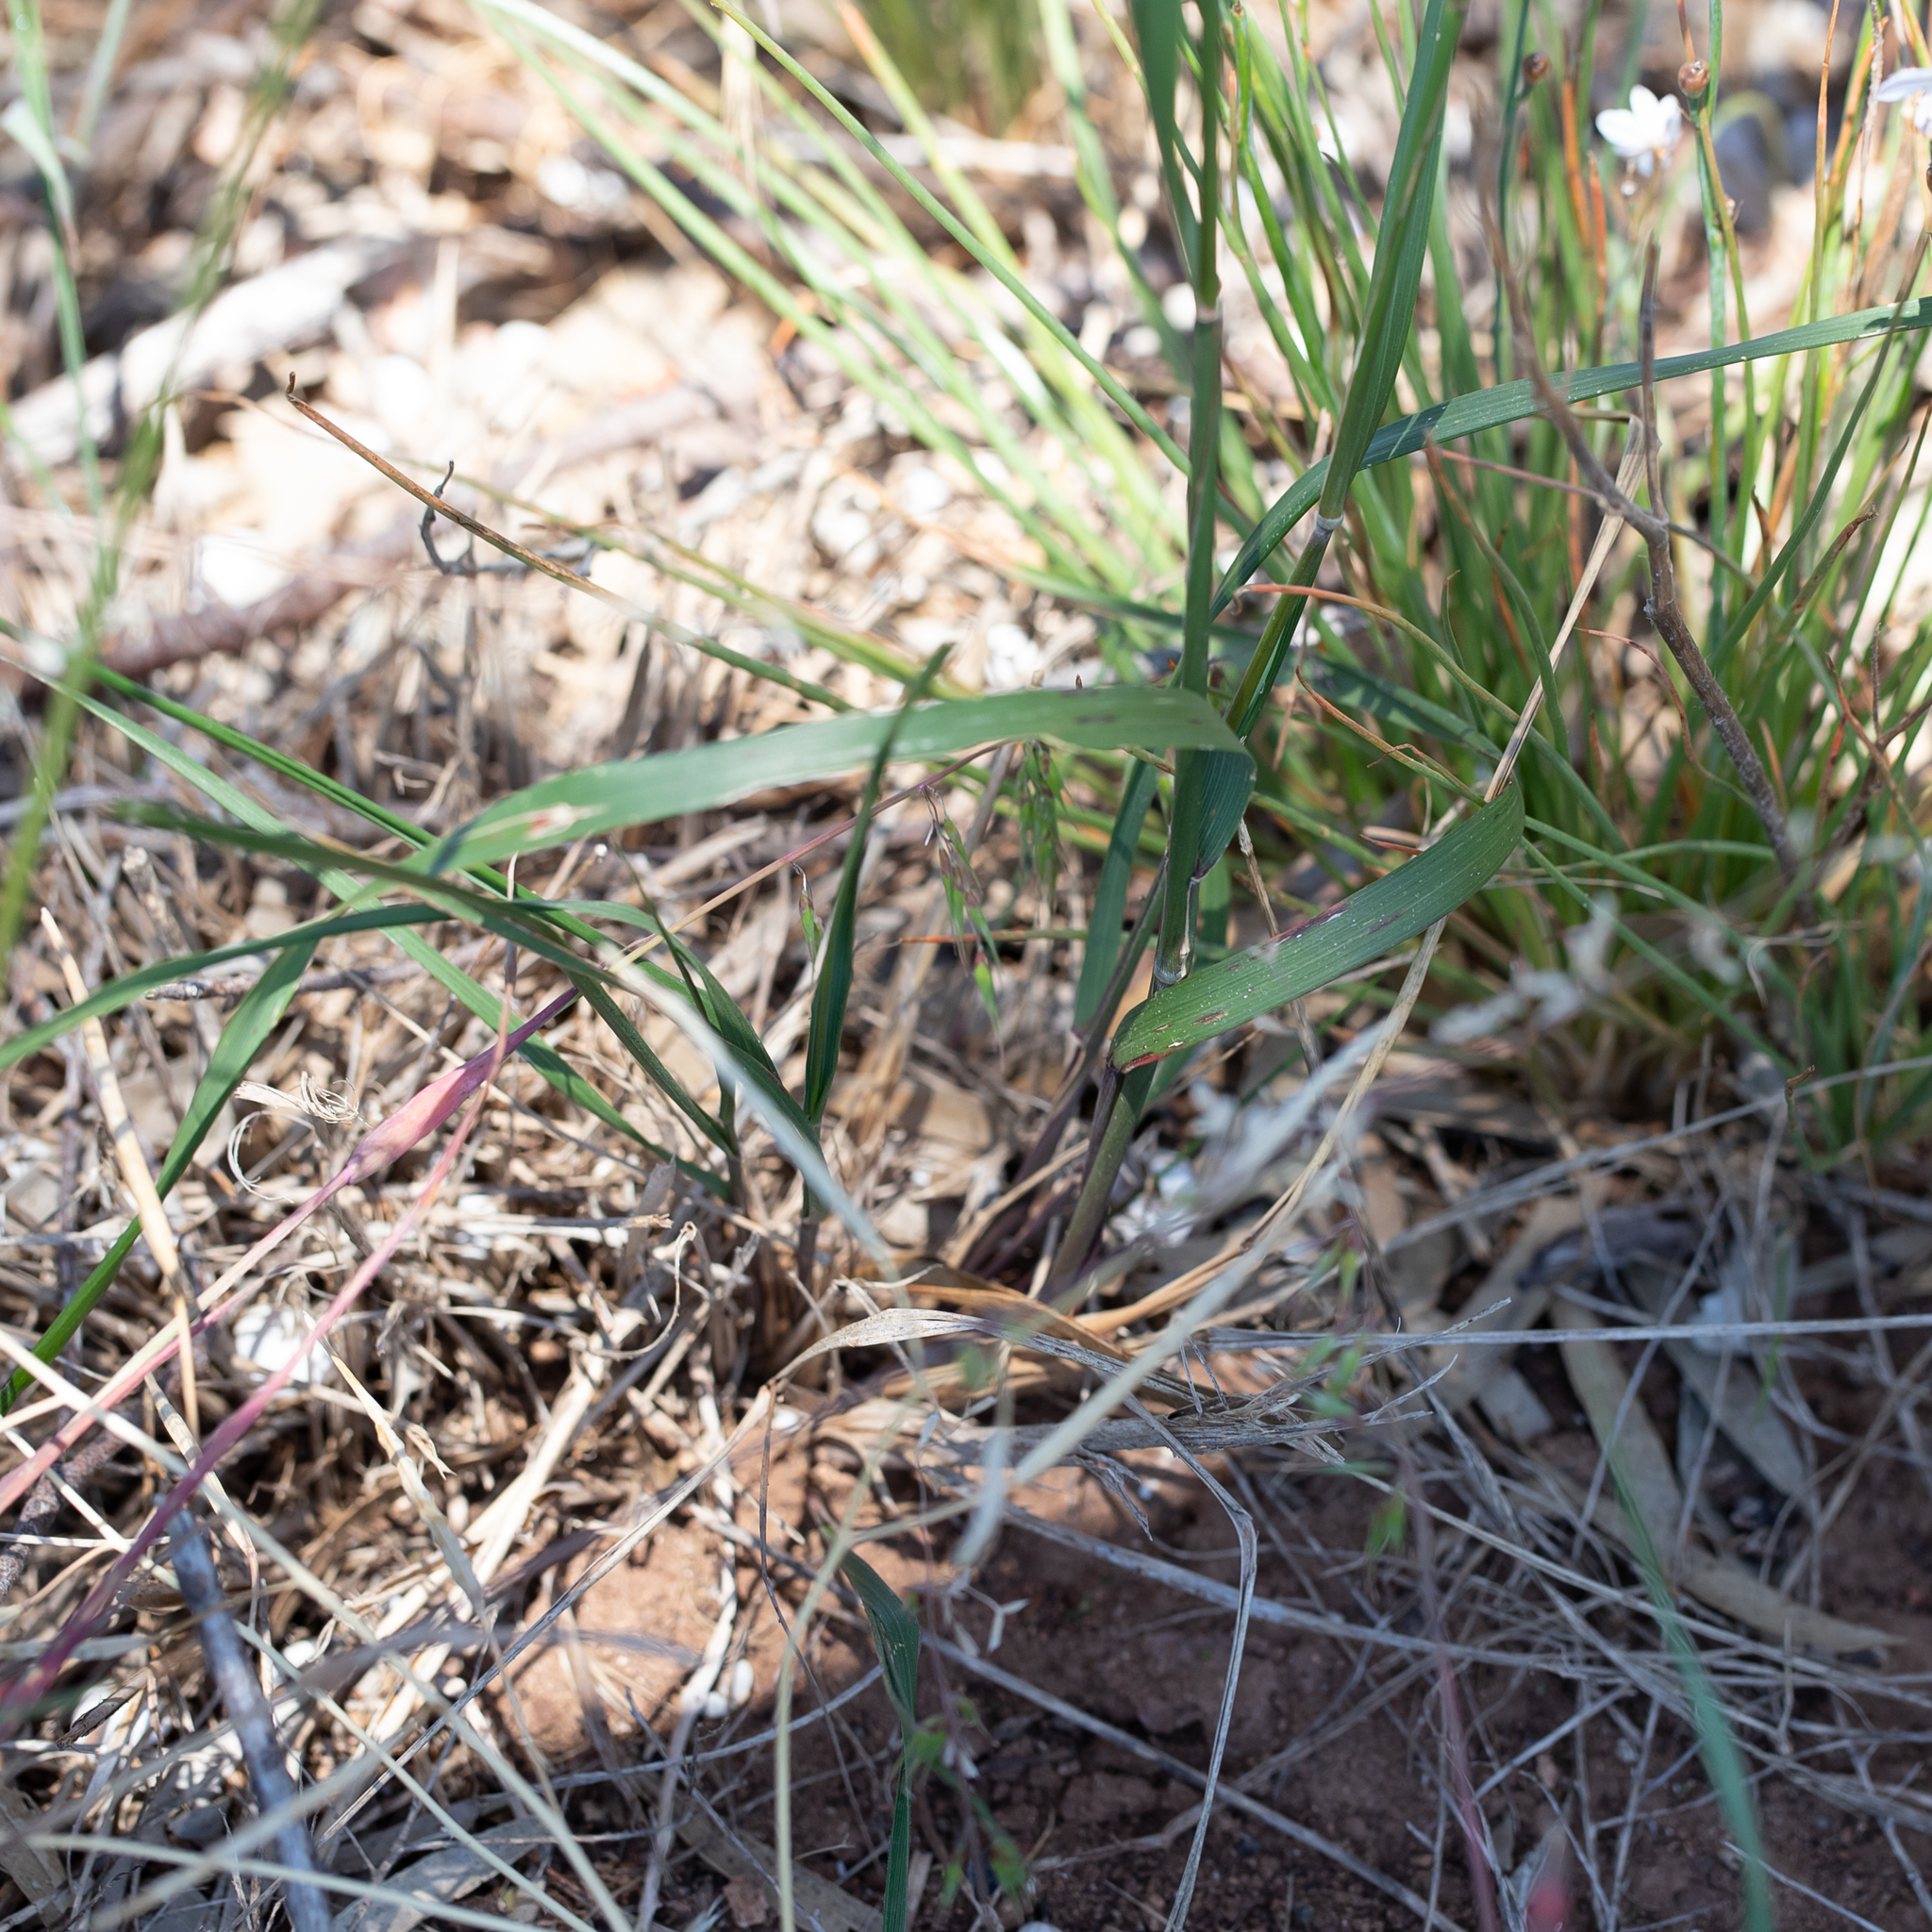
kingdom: Plantae
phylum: Tracheophyta
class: Liliopsida
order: Poales
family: Poaceae
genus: Austrostipa
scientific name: Austrostipa flavescens
